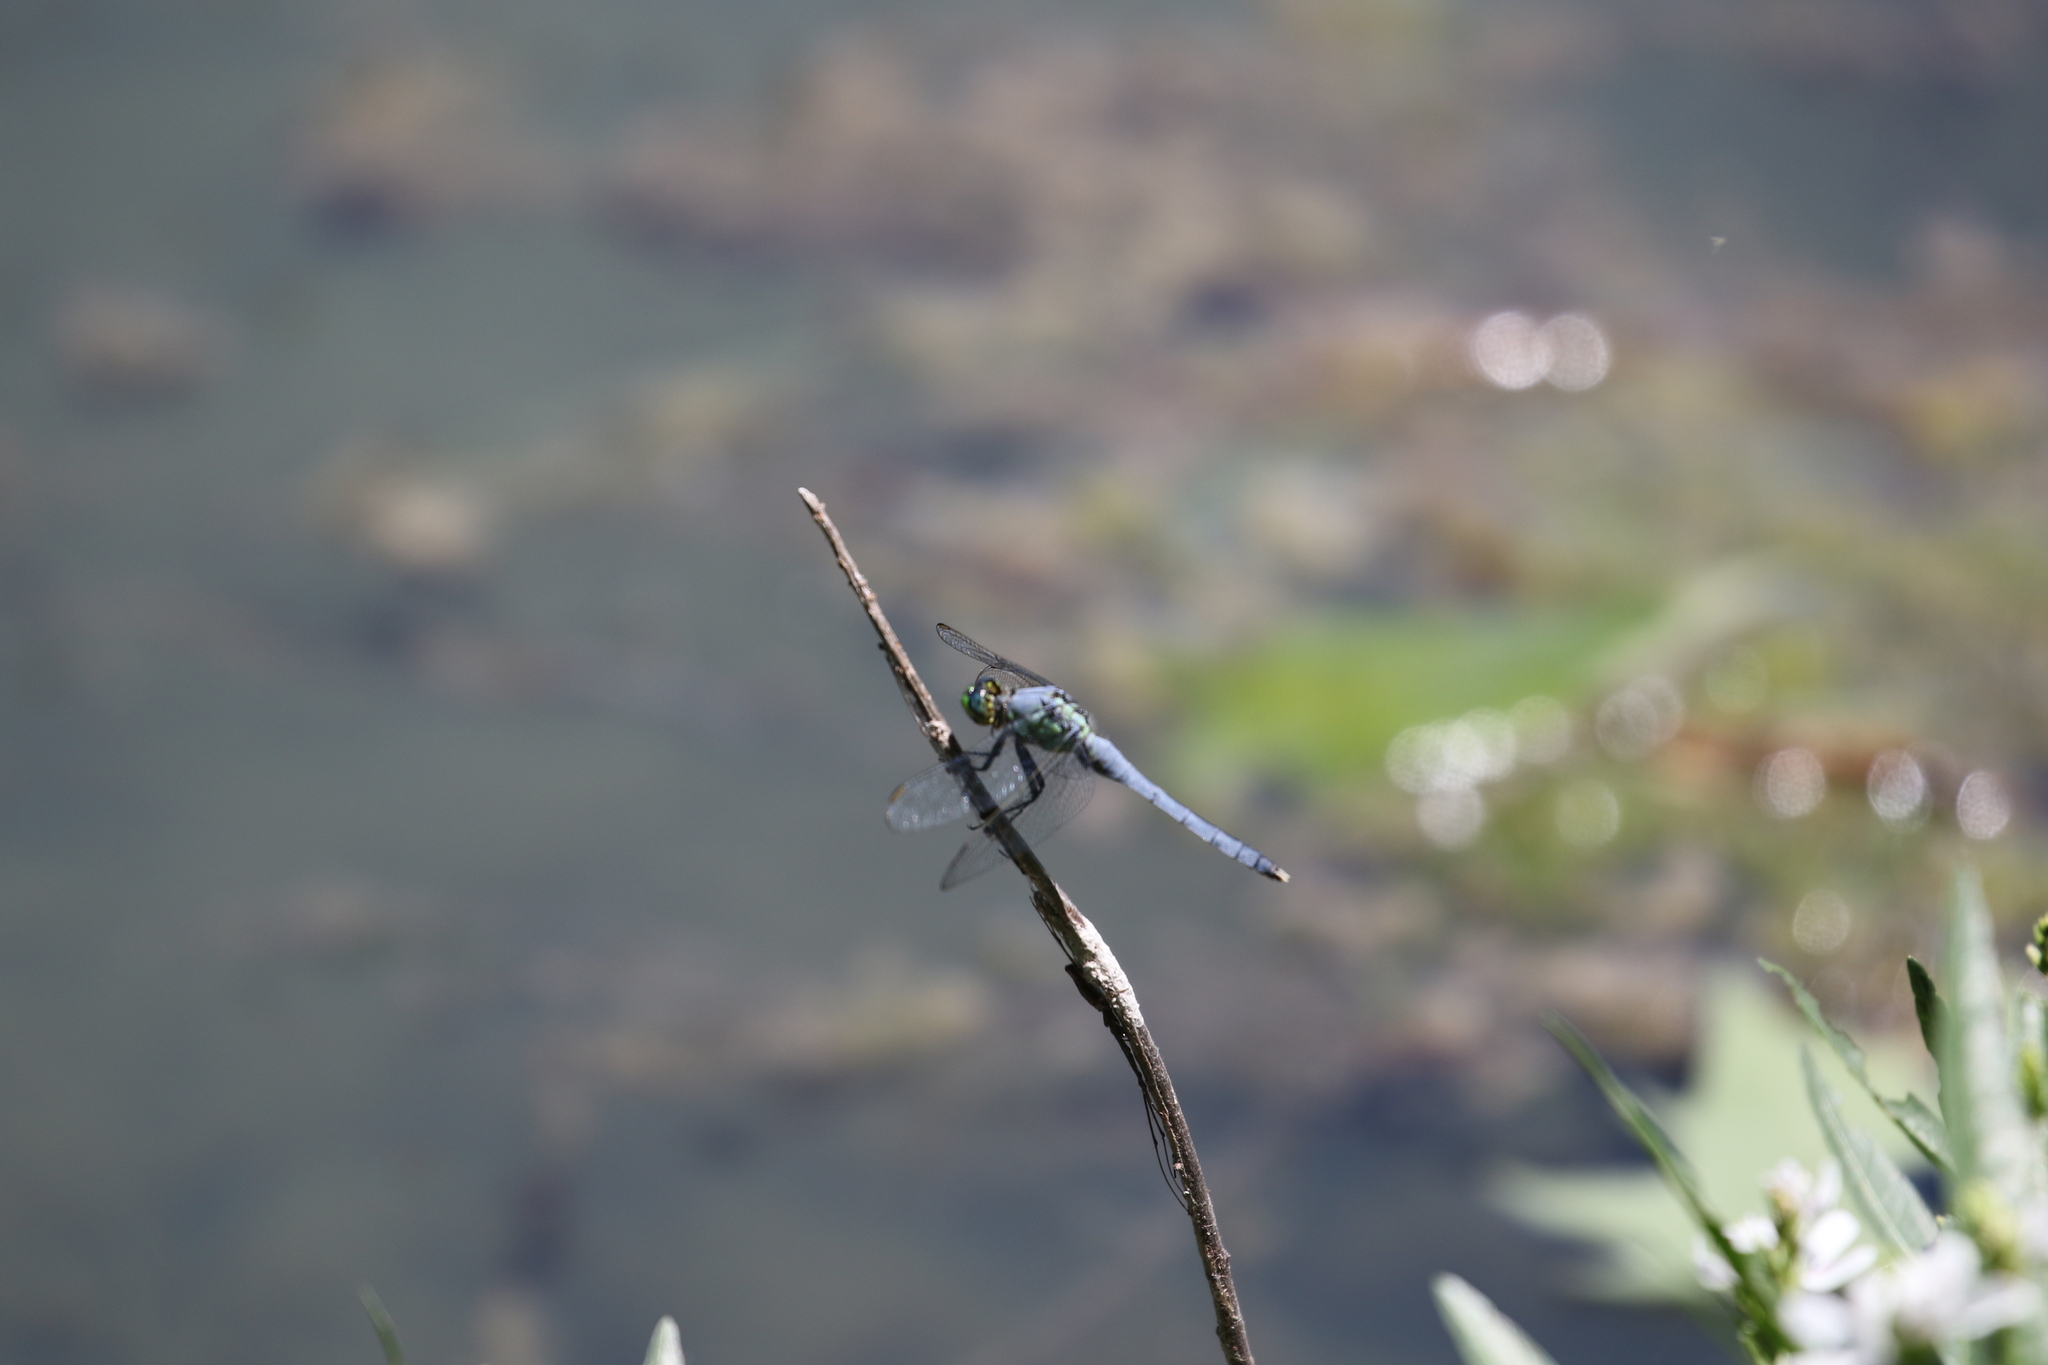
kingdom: Animalia
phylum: Arthropoda
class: Insecta
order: Odonata
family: Libellulidae
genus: Erythemis
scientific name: Erythemis simplicicollis
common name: Eastern pondhawk
